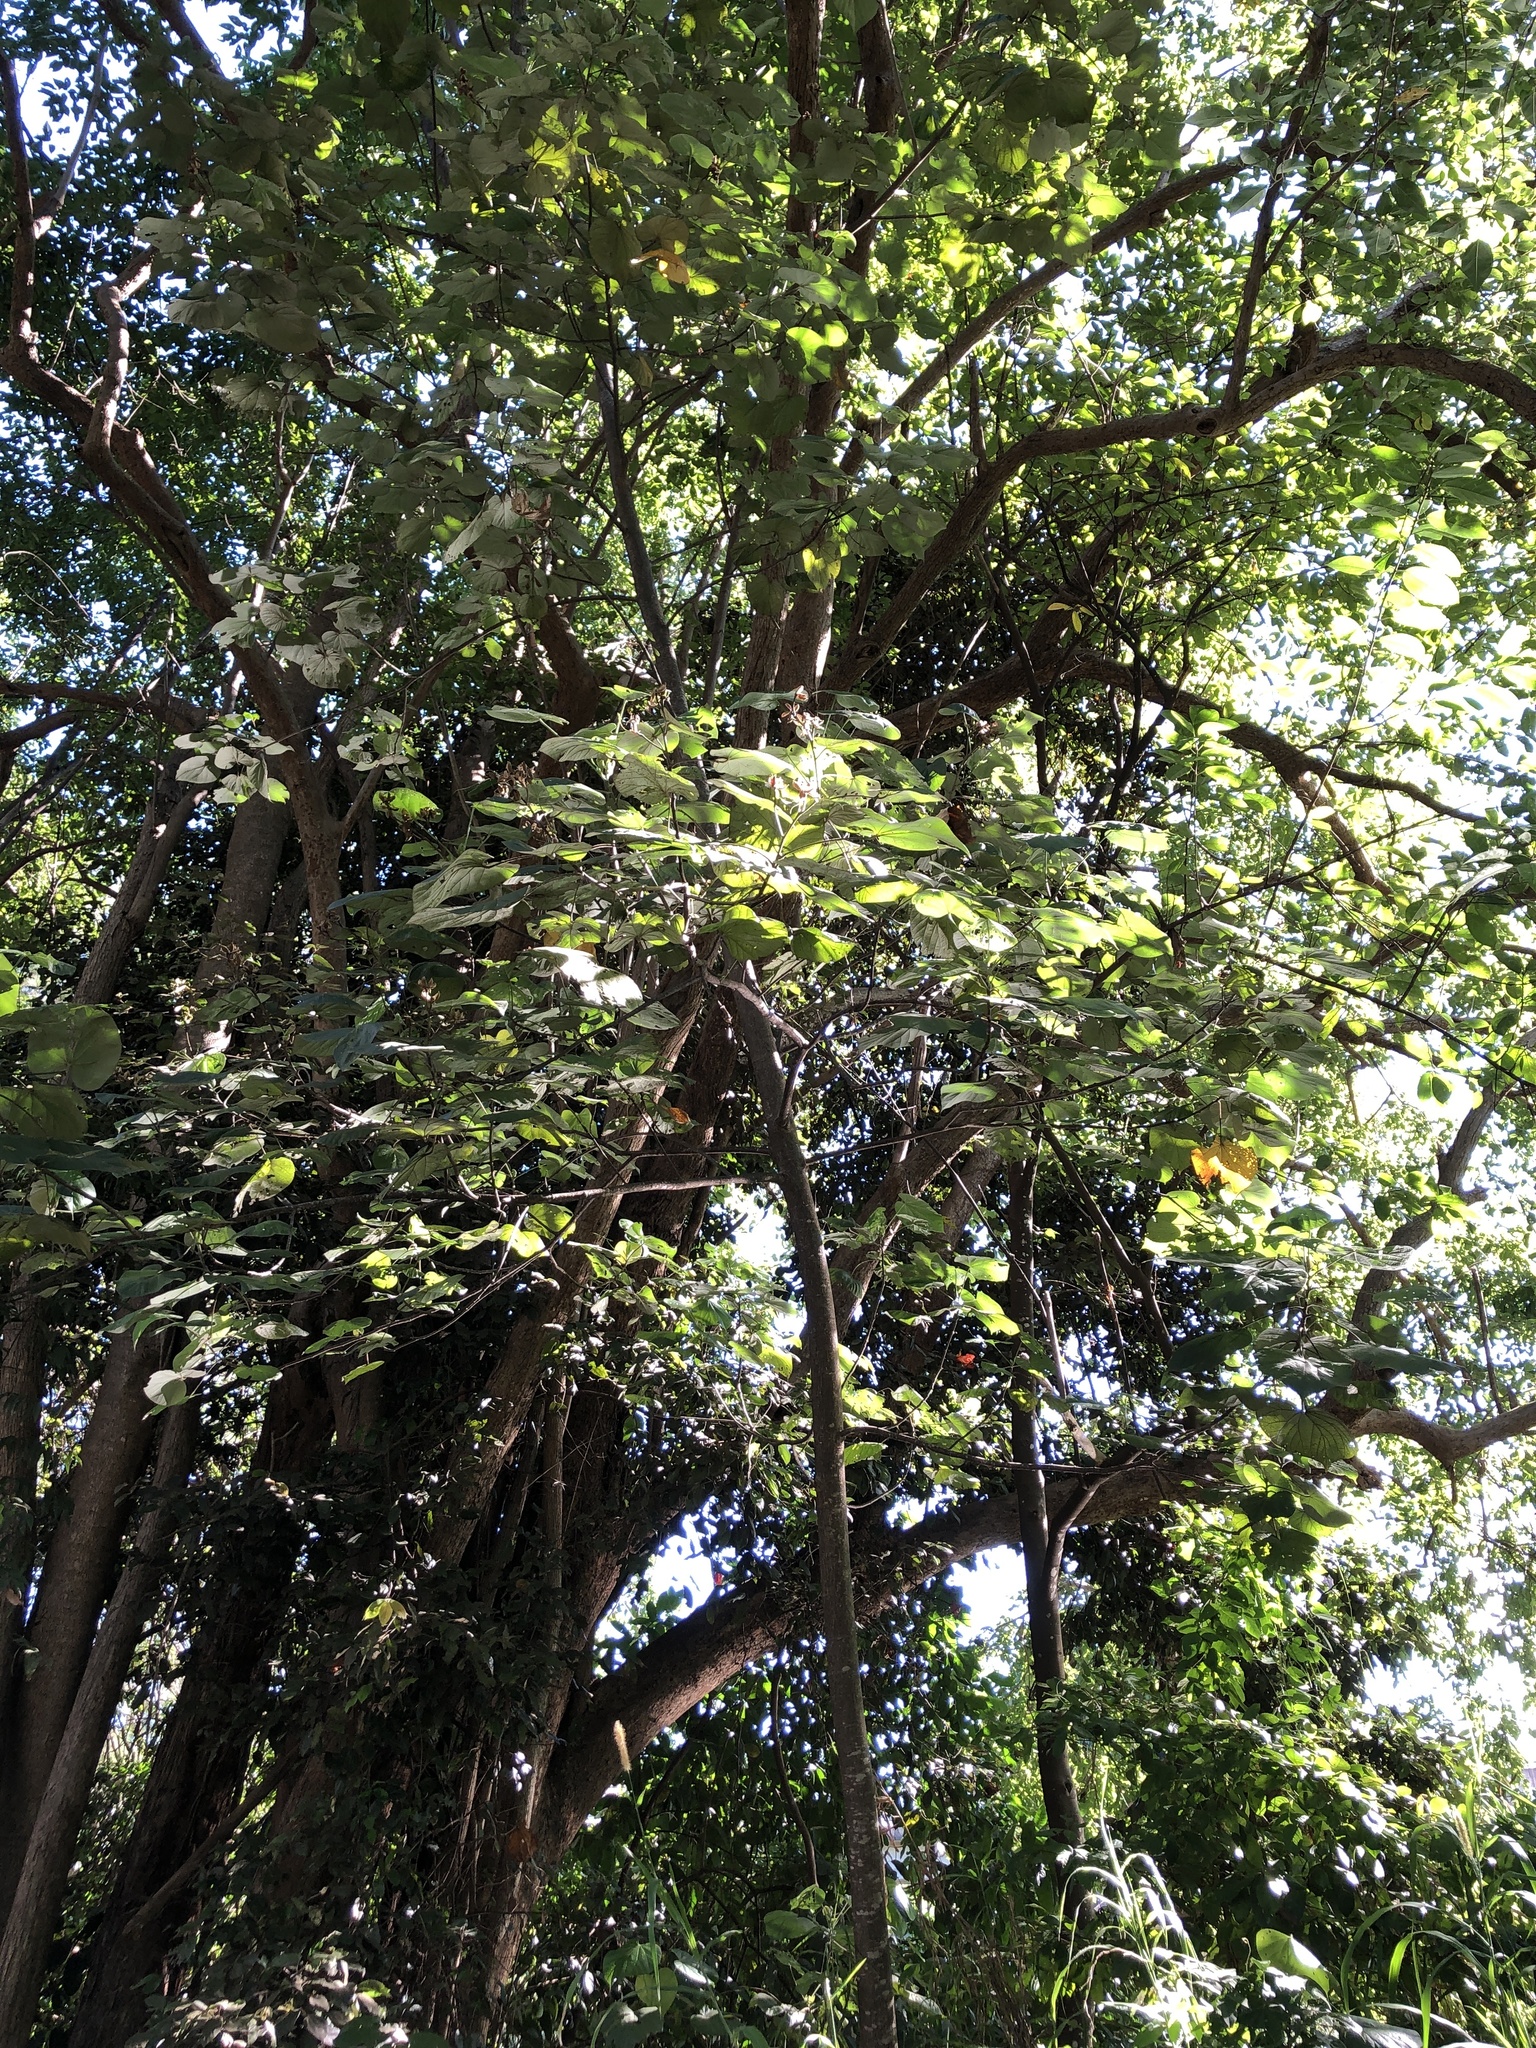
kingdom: Plantae
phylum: Tracheophyta
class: Magnoliopsida
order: Malvales
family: Malvaceae
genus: Talipariti
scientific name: Talipariti tiliaceum
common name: Sea hibiscus
